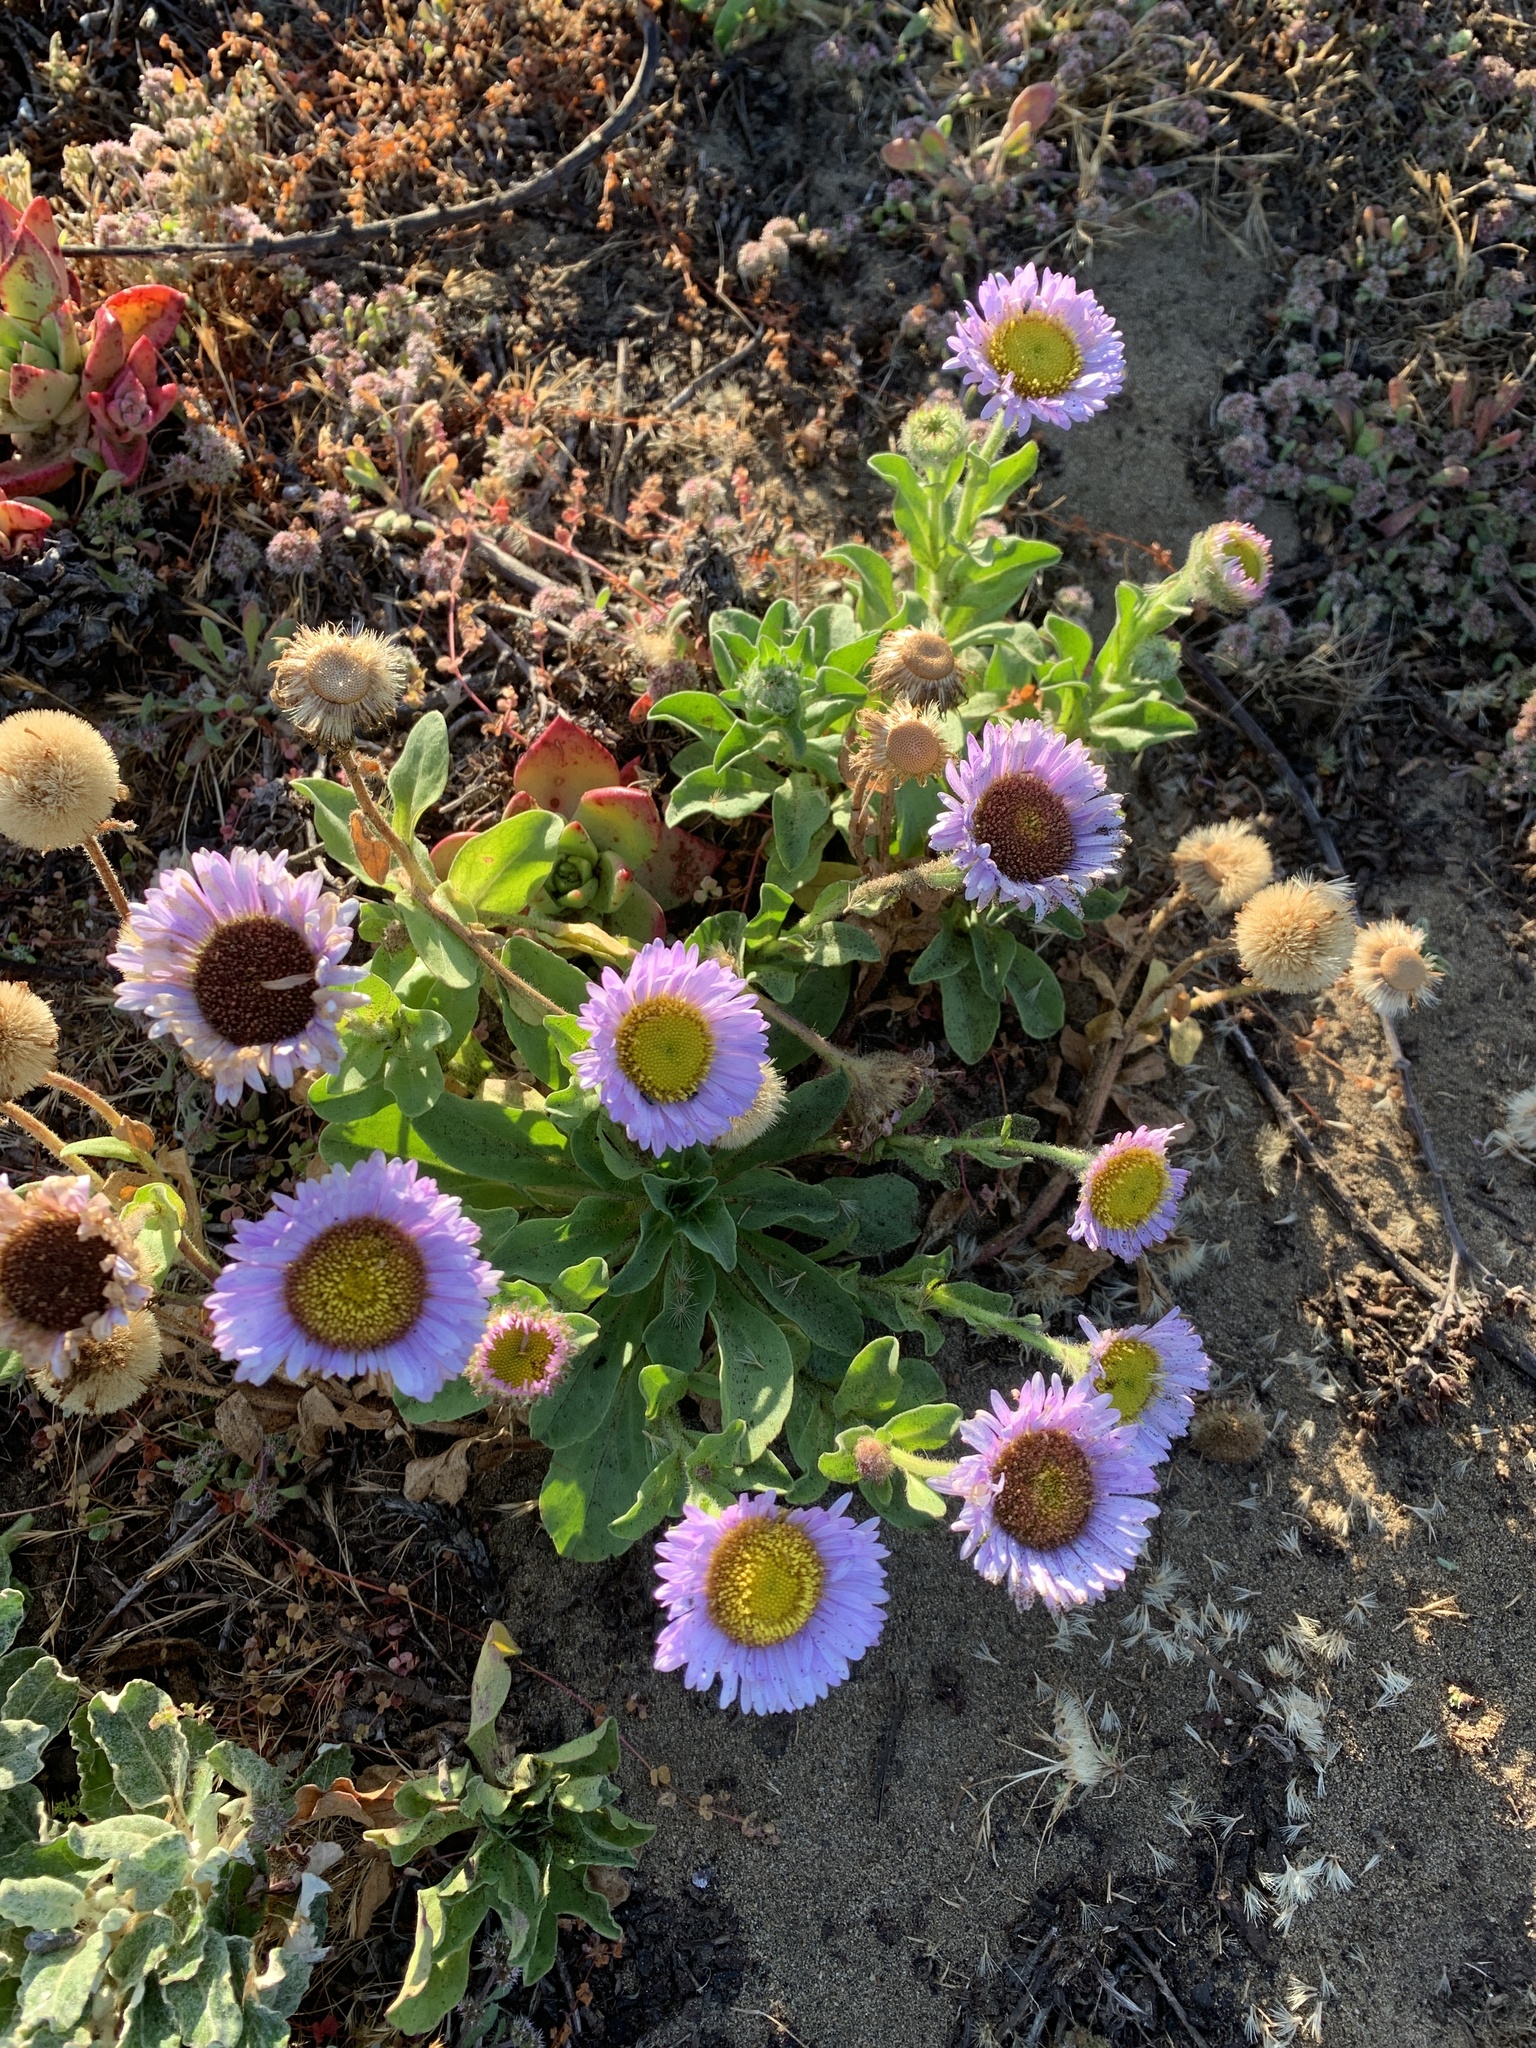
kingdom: Plantae
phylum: Tracheophyta
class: Magnoliopsida
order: Asterales
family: Asteraceae
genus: Erigeron
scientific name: Erigeron glaucus
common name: Seaside daisy
